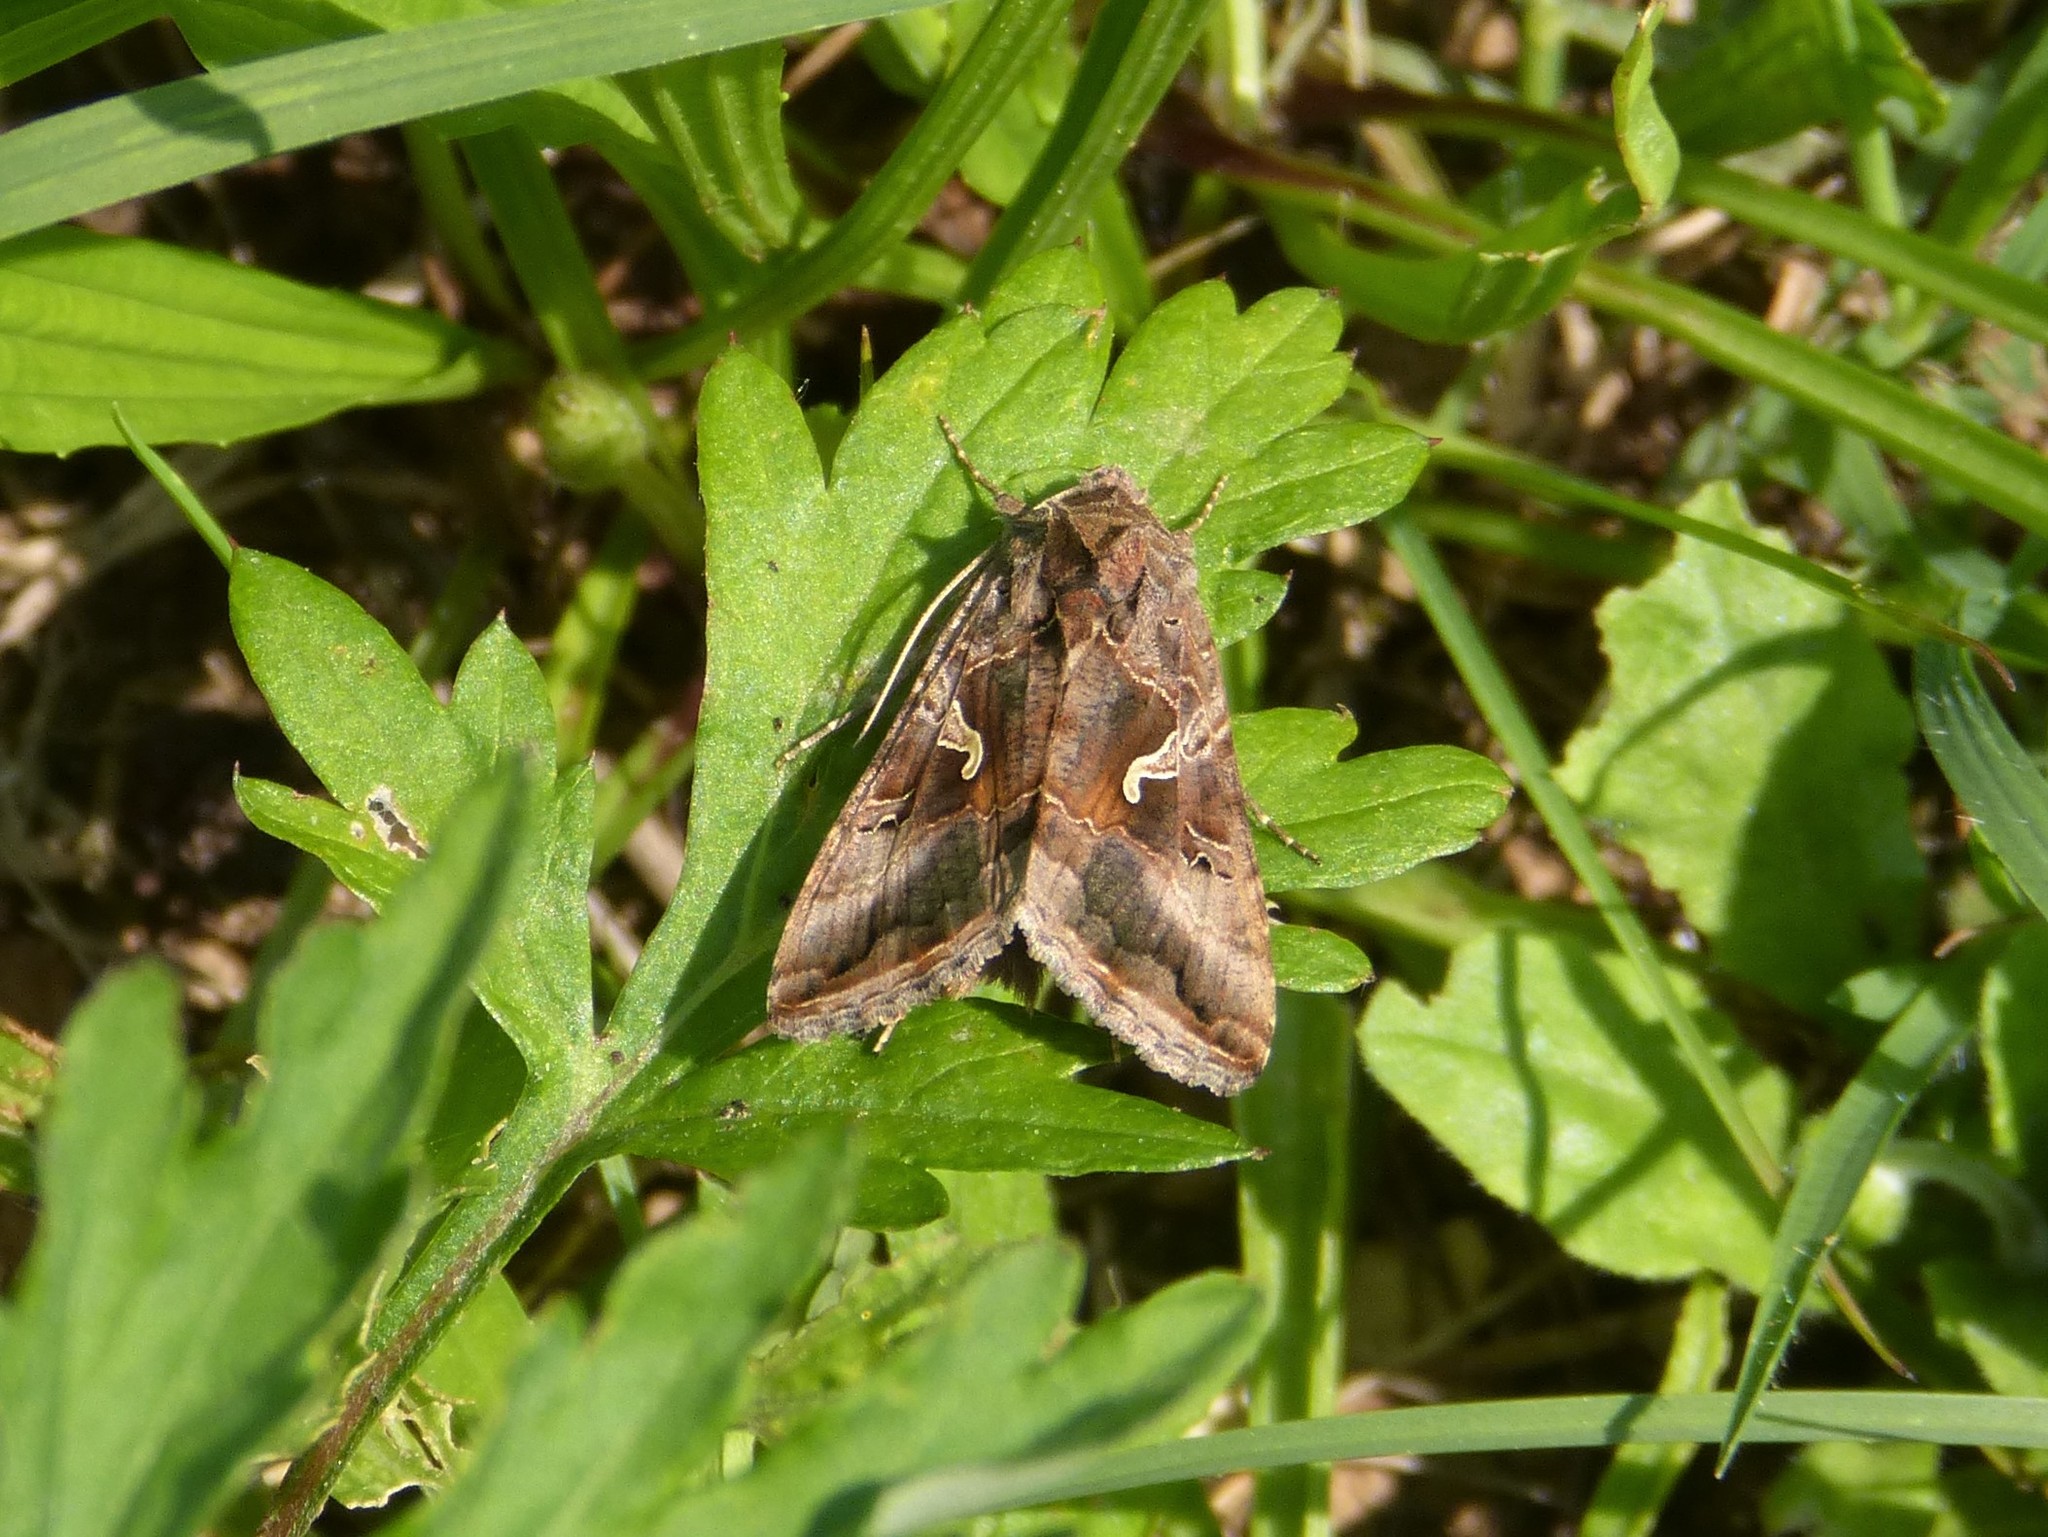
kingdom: Animalia
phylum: Arthropoda
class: Insecta
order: Lepidoptera
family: Noctuidae
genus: Autographa
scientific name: Autographa gamma
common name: Silver y
